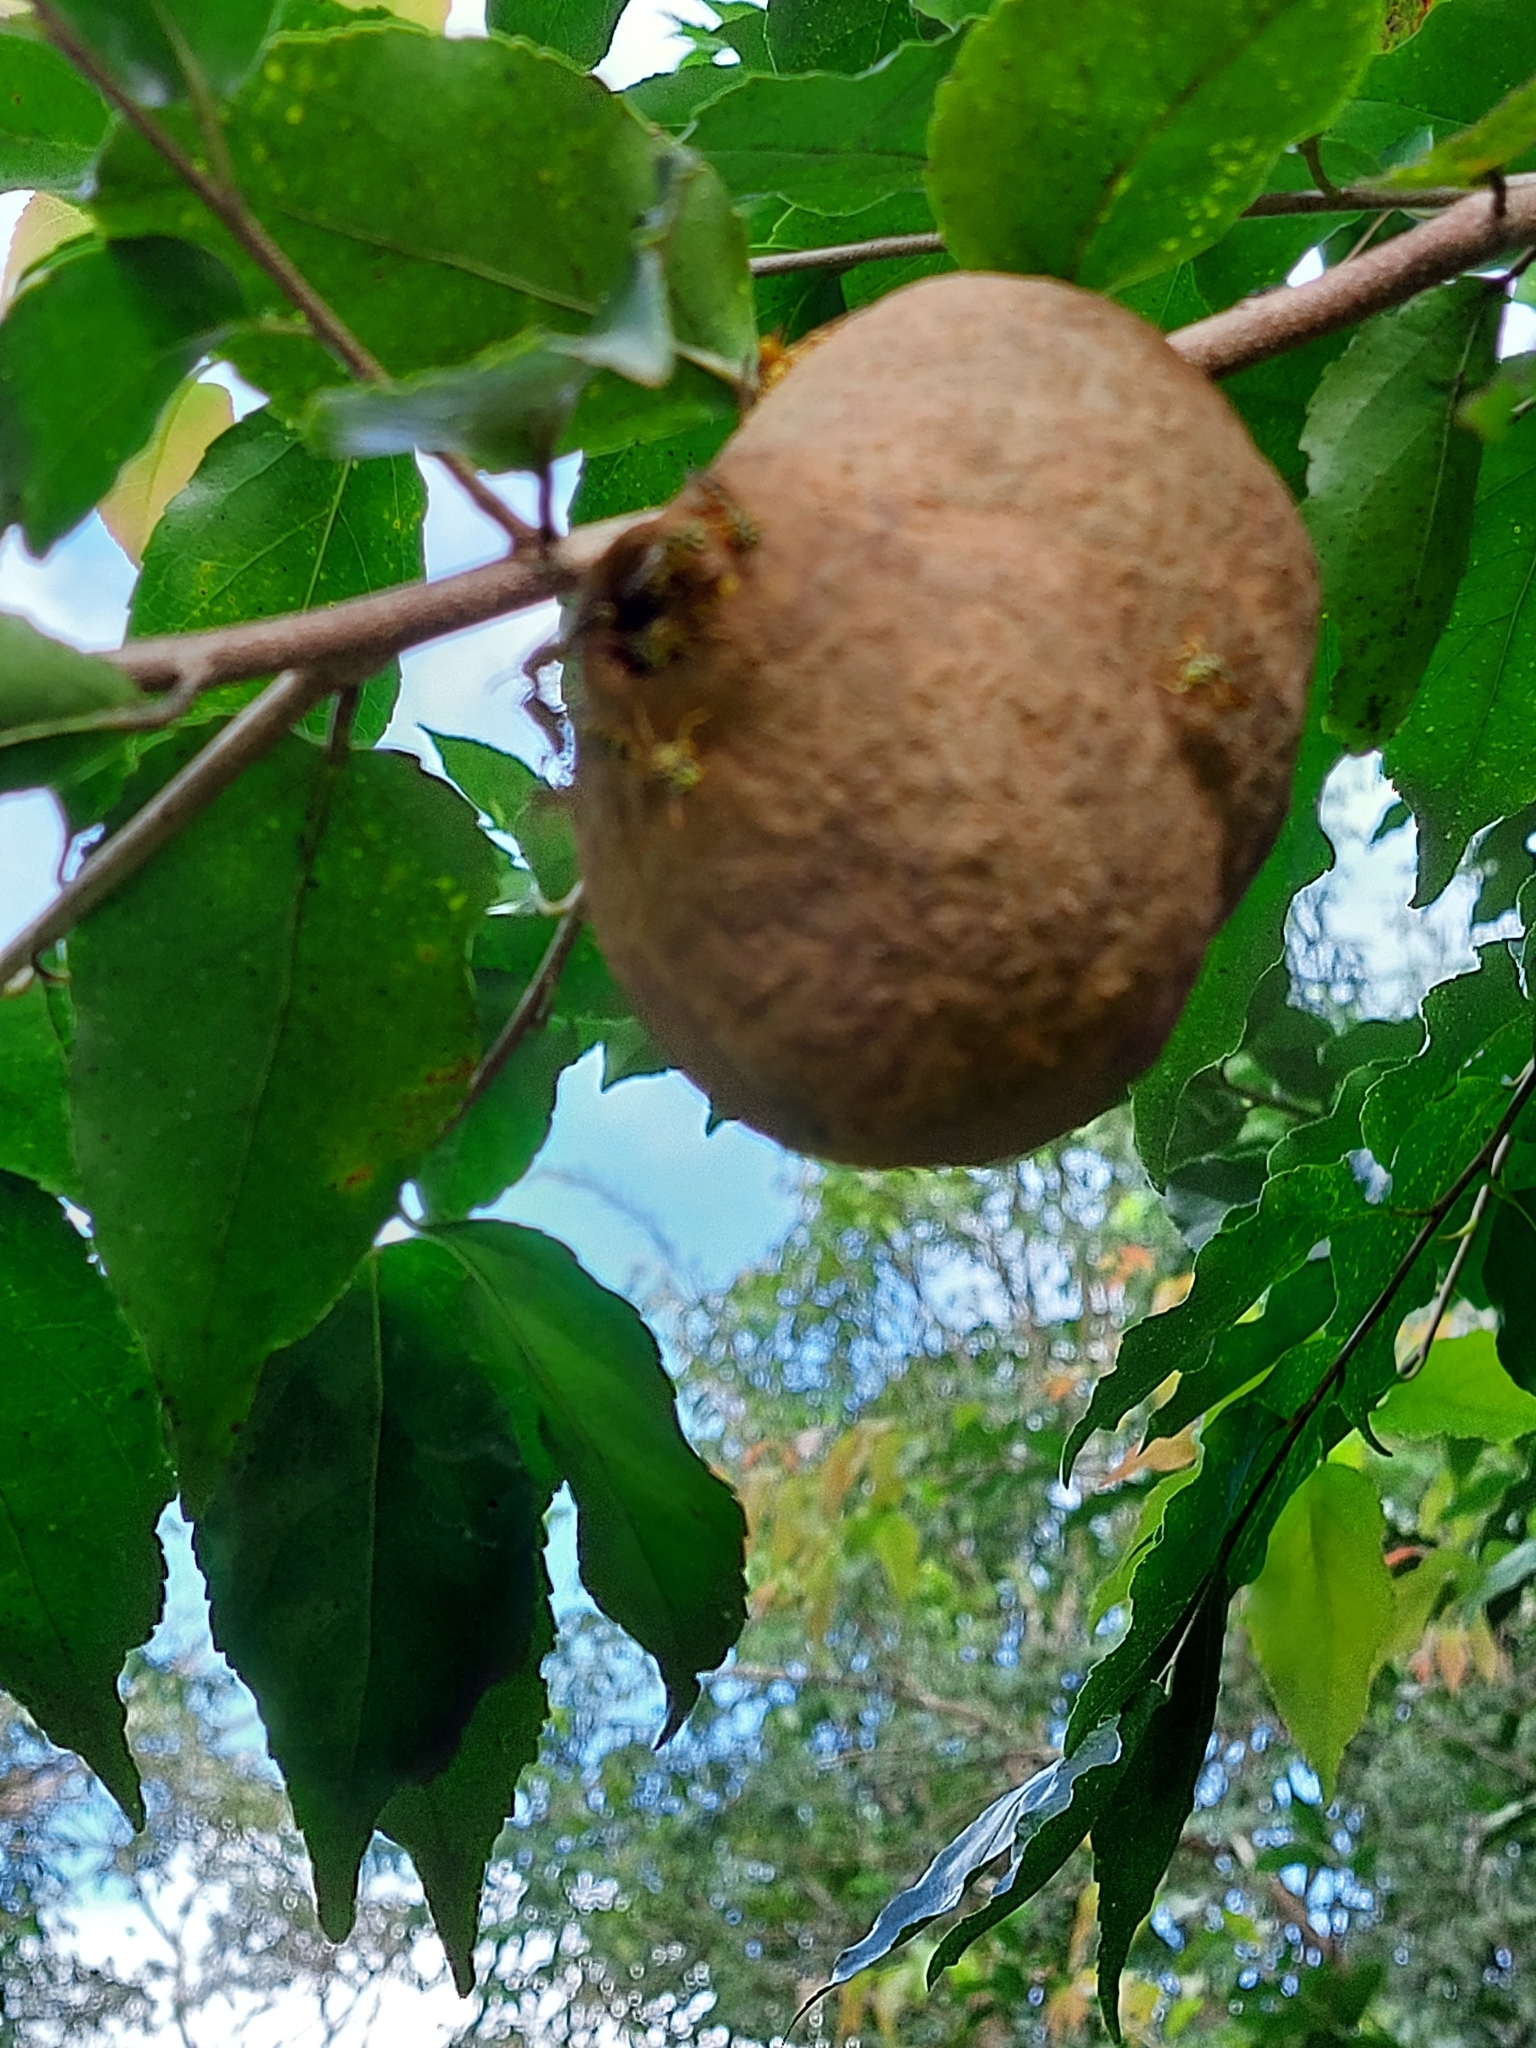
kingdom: Animalia
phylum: Arthropoda
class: Insecta
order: Hymenoptera
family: Eumenidae
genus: Polybia
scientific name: Polybia emaciata
